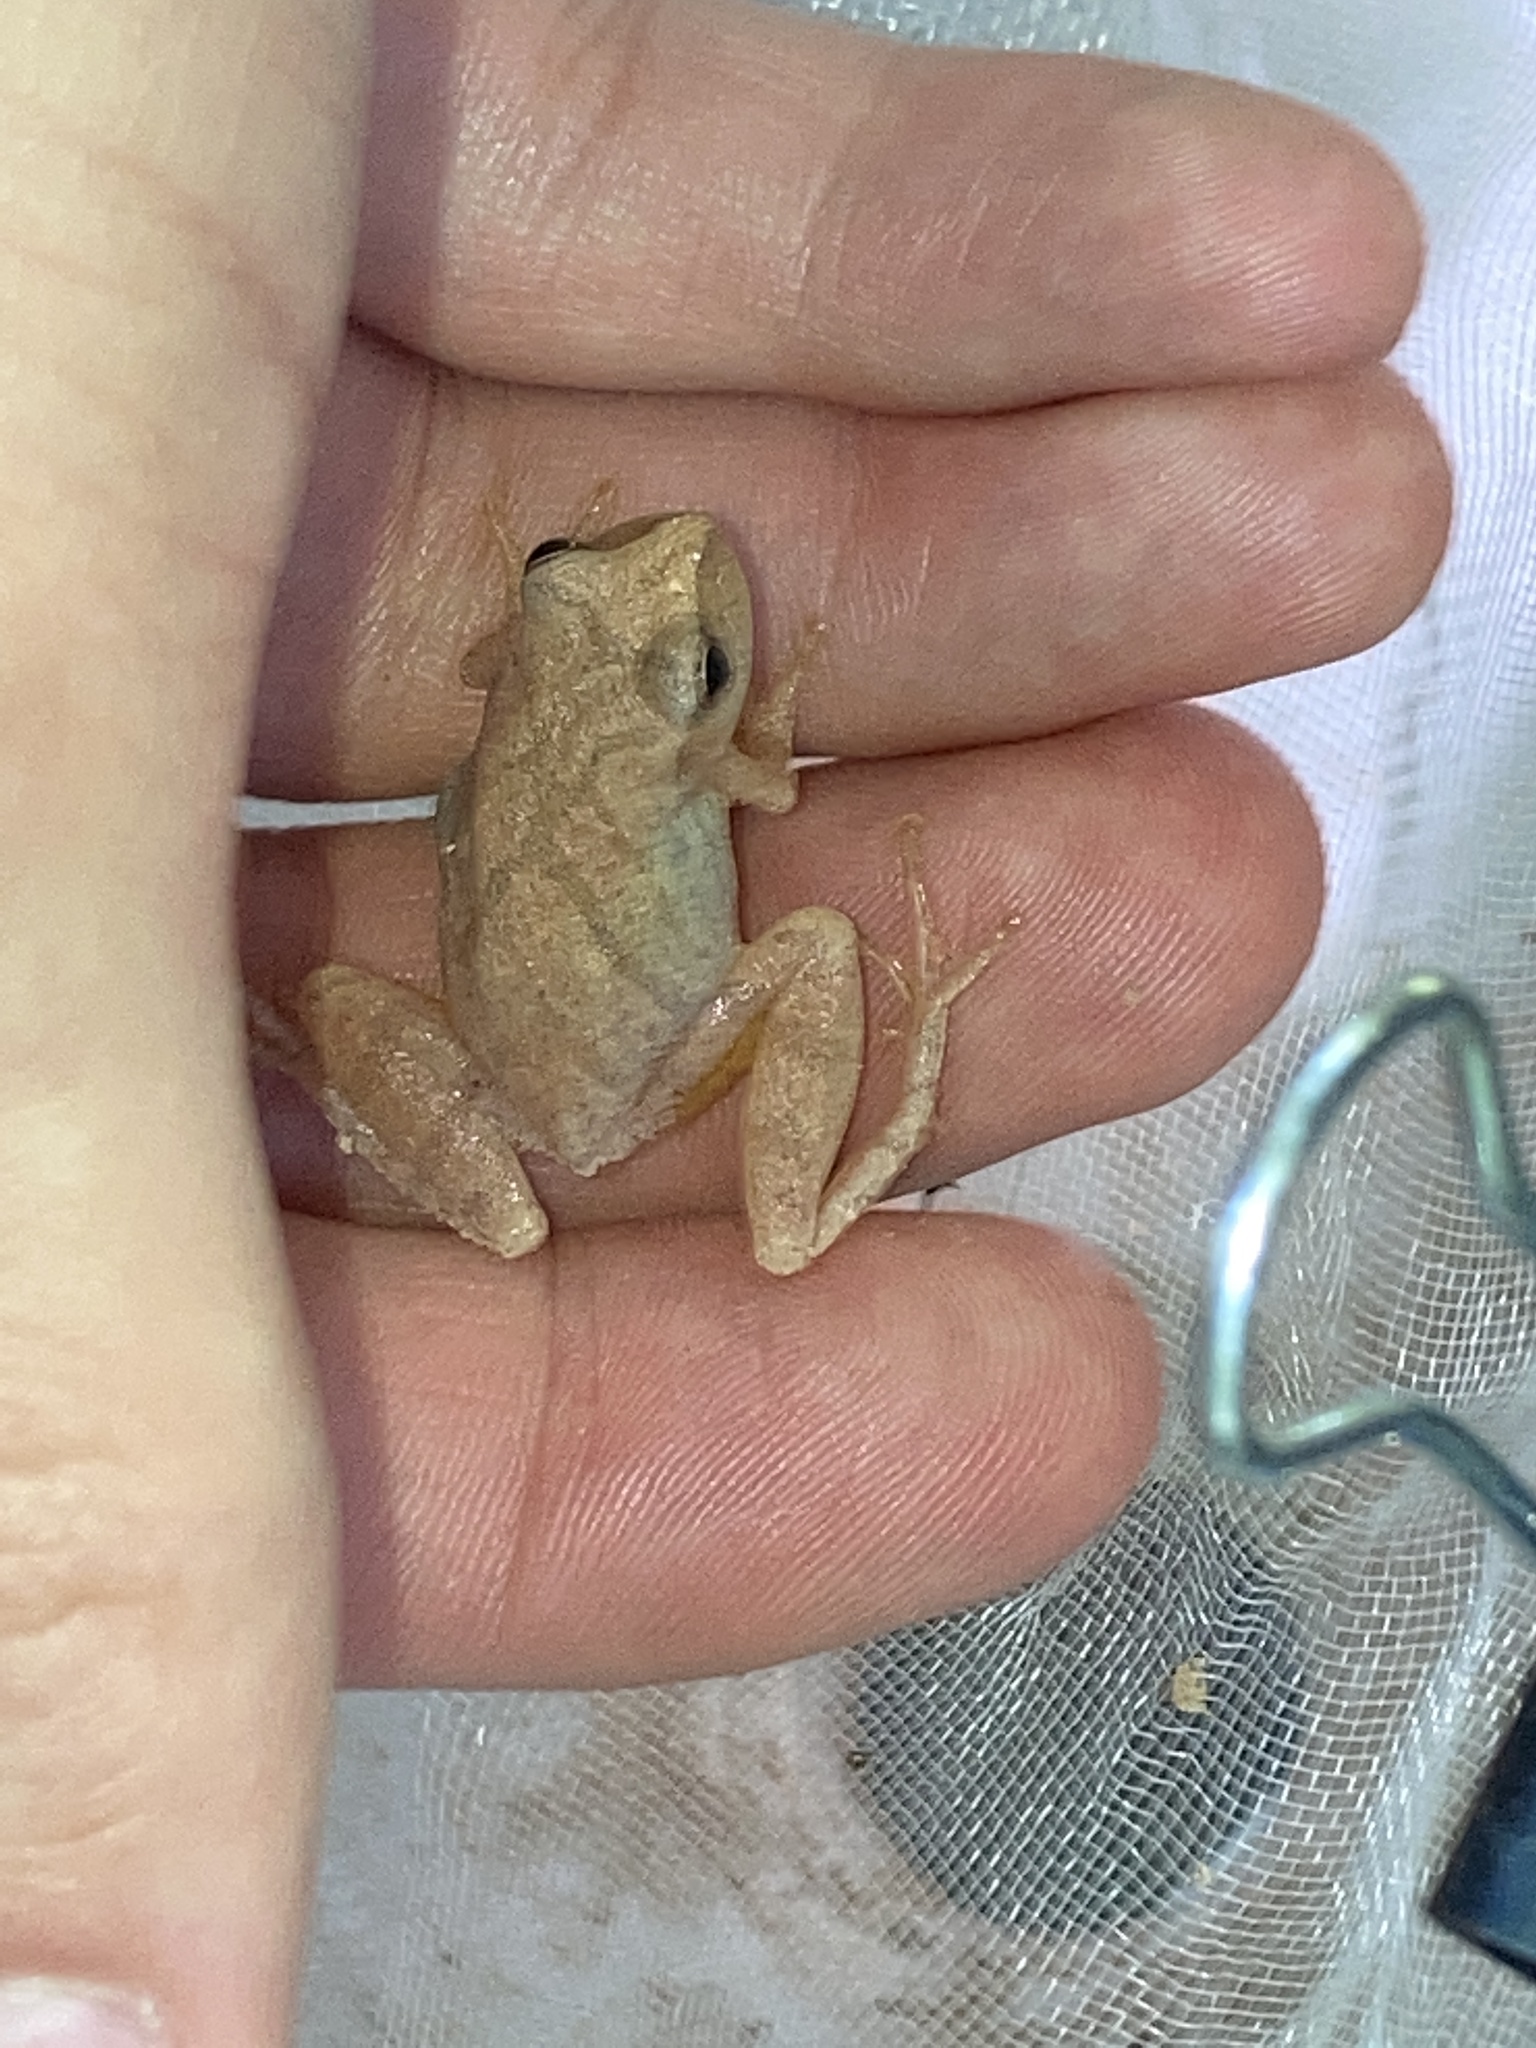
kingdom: Animalia
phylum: Chordata
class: Amphibia
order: Anura
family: Hylidae
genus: Pseudacris
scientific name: Pseudacris crucifer
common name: Spring peeper
